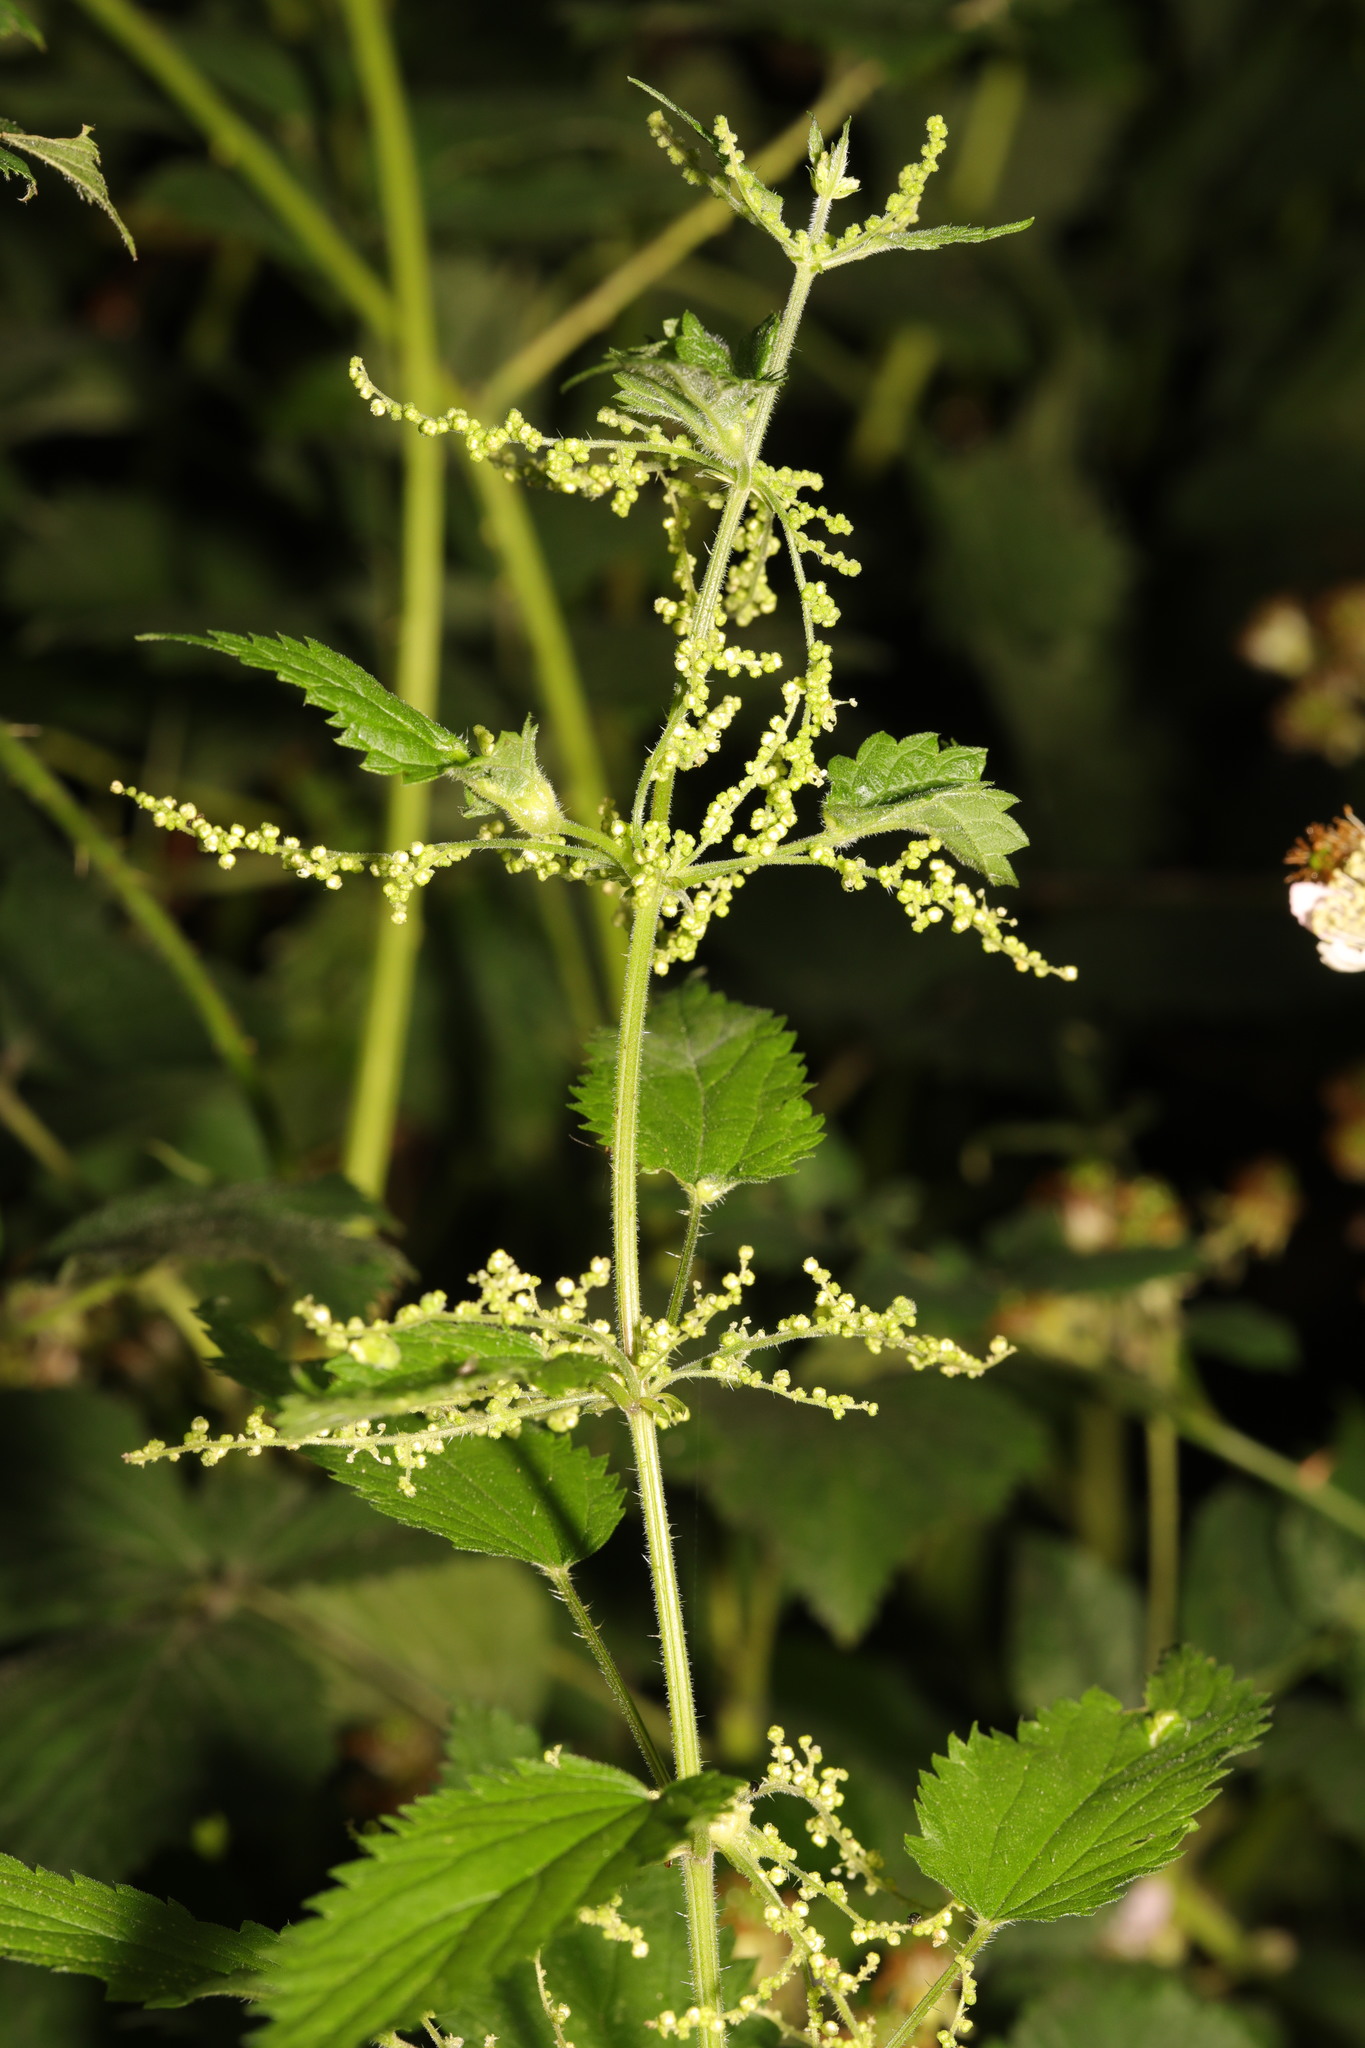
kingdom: Plantae
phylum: Tracheophyta
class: Magnoliopsida
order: Rosales
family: Urticaceae
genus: Urtica
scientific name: Urtica dioica
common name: Common nettle
